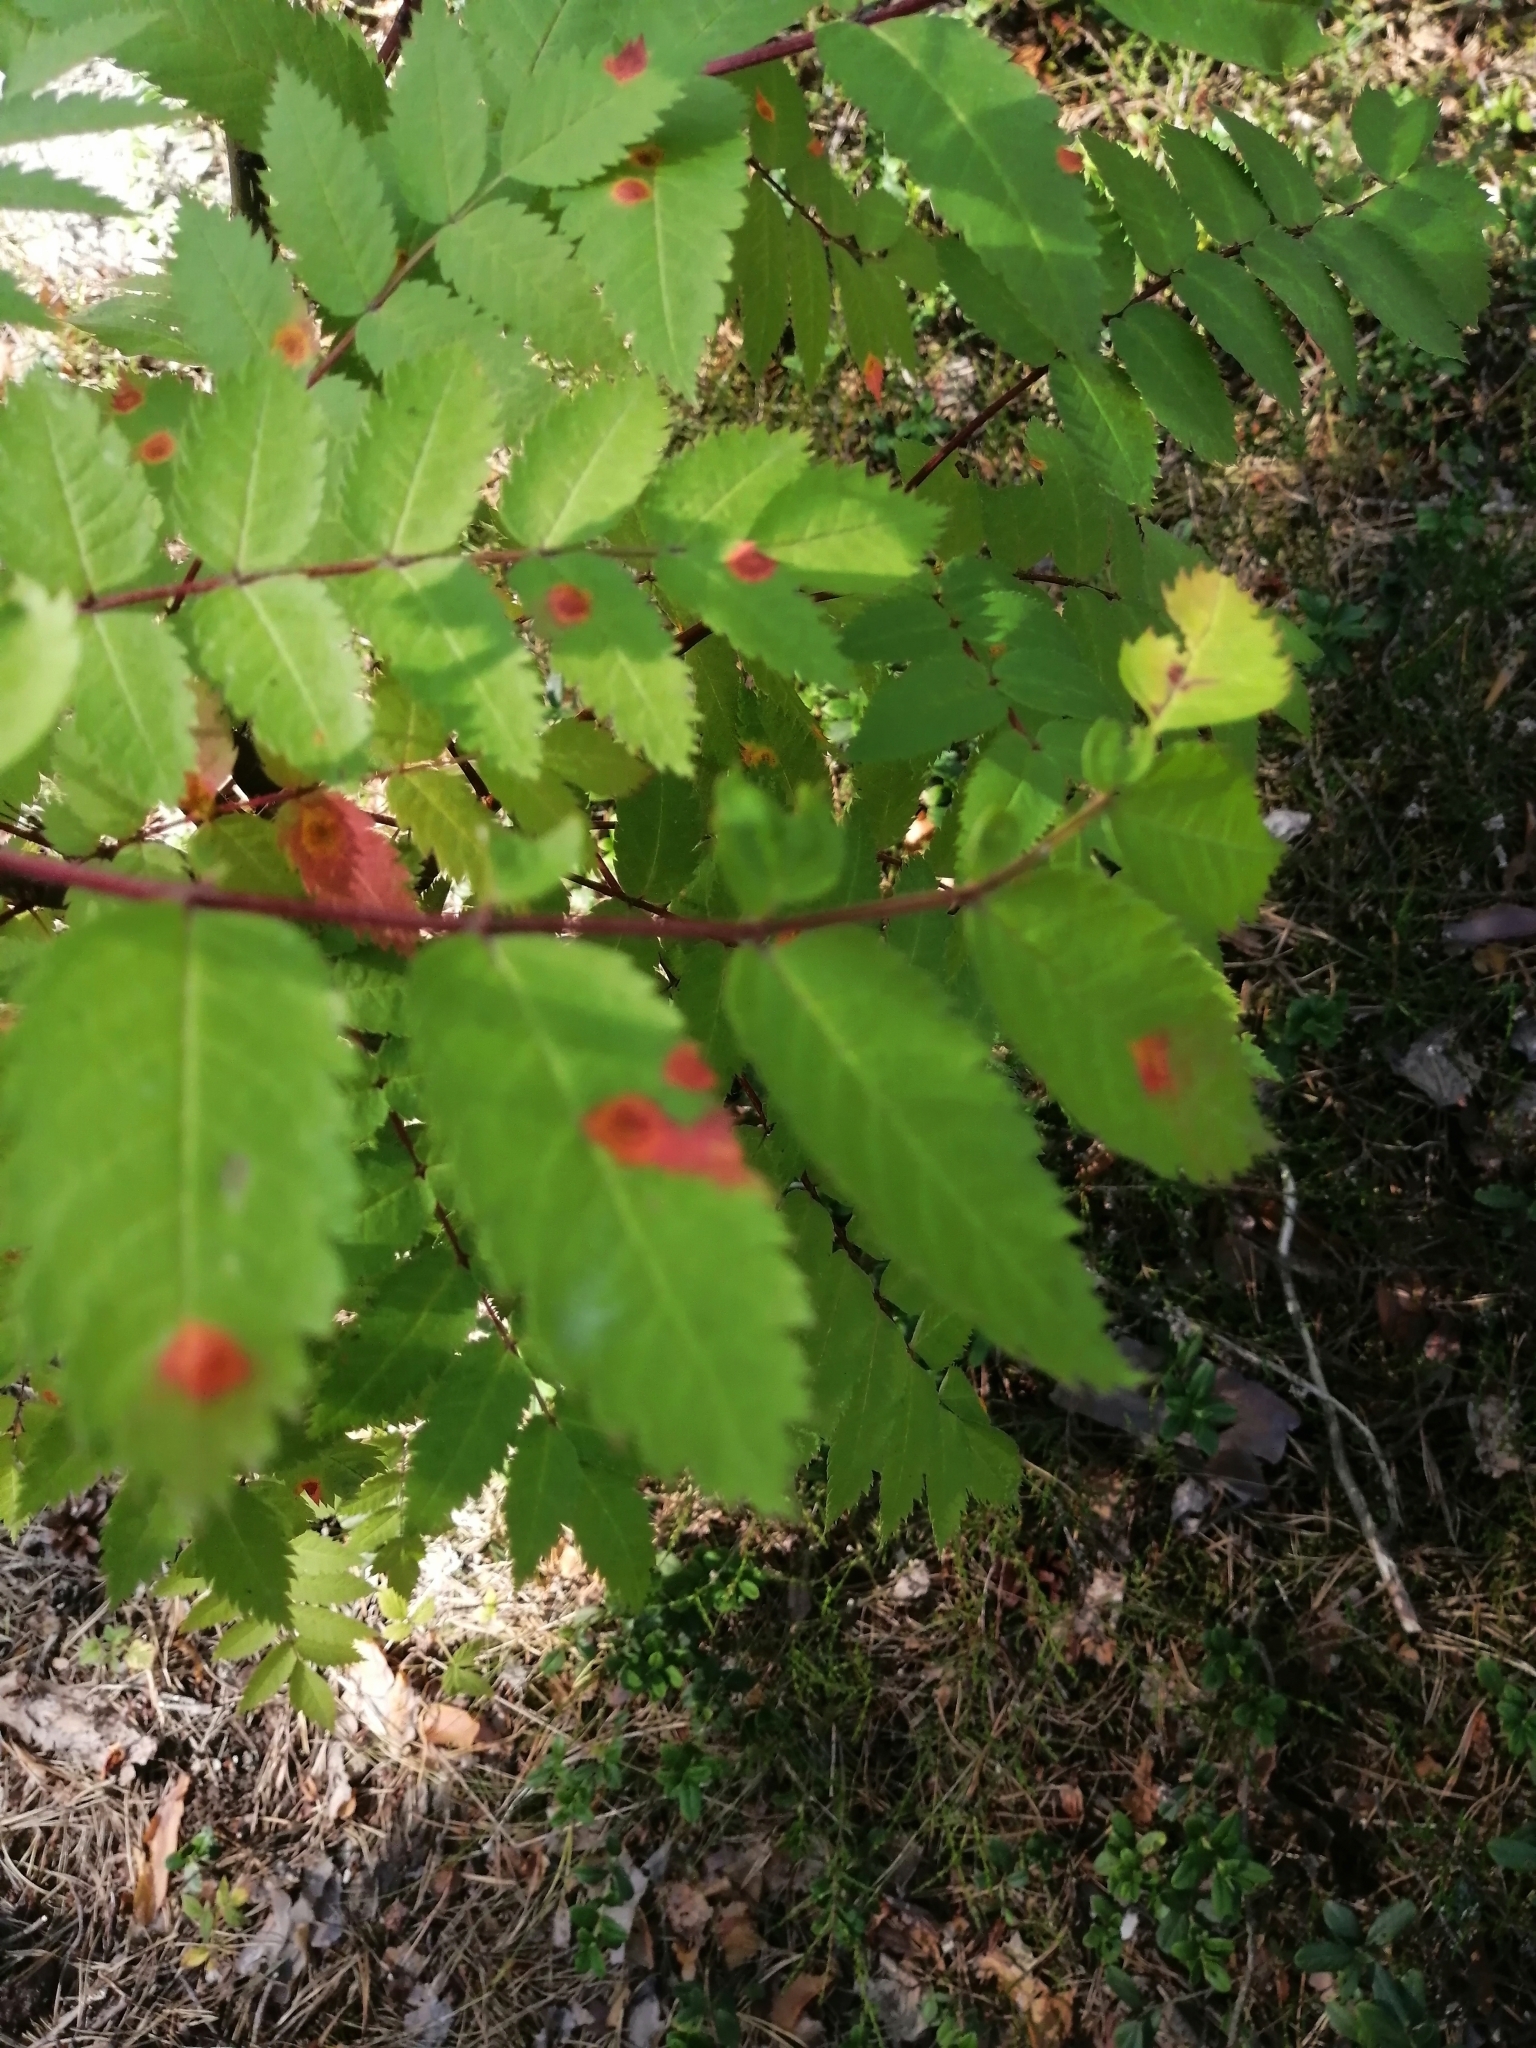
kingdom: Fungi
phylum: Basidiomycota
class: Pucciniomycetes
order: Pucciniales
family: Gymnosporangiaceae
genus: Gymnosporangium
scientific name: Gymnosporangium cornutum
